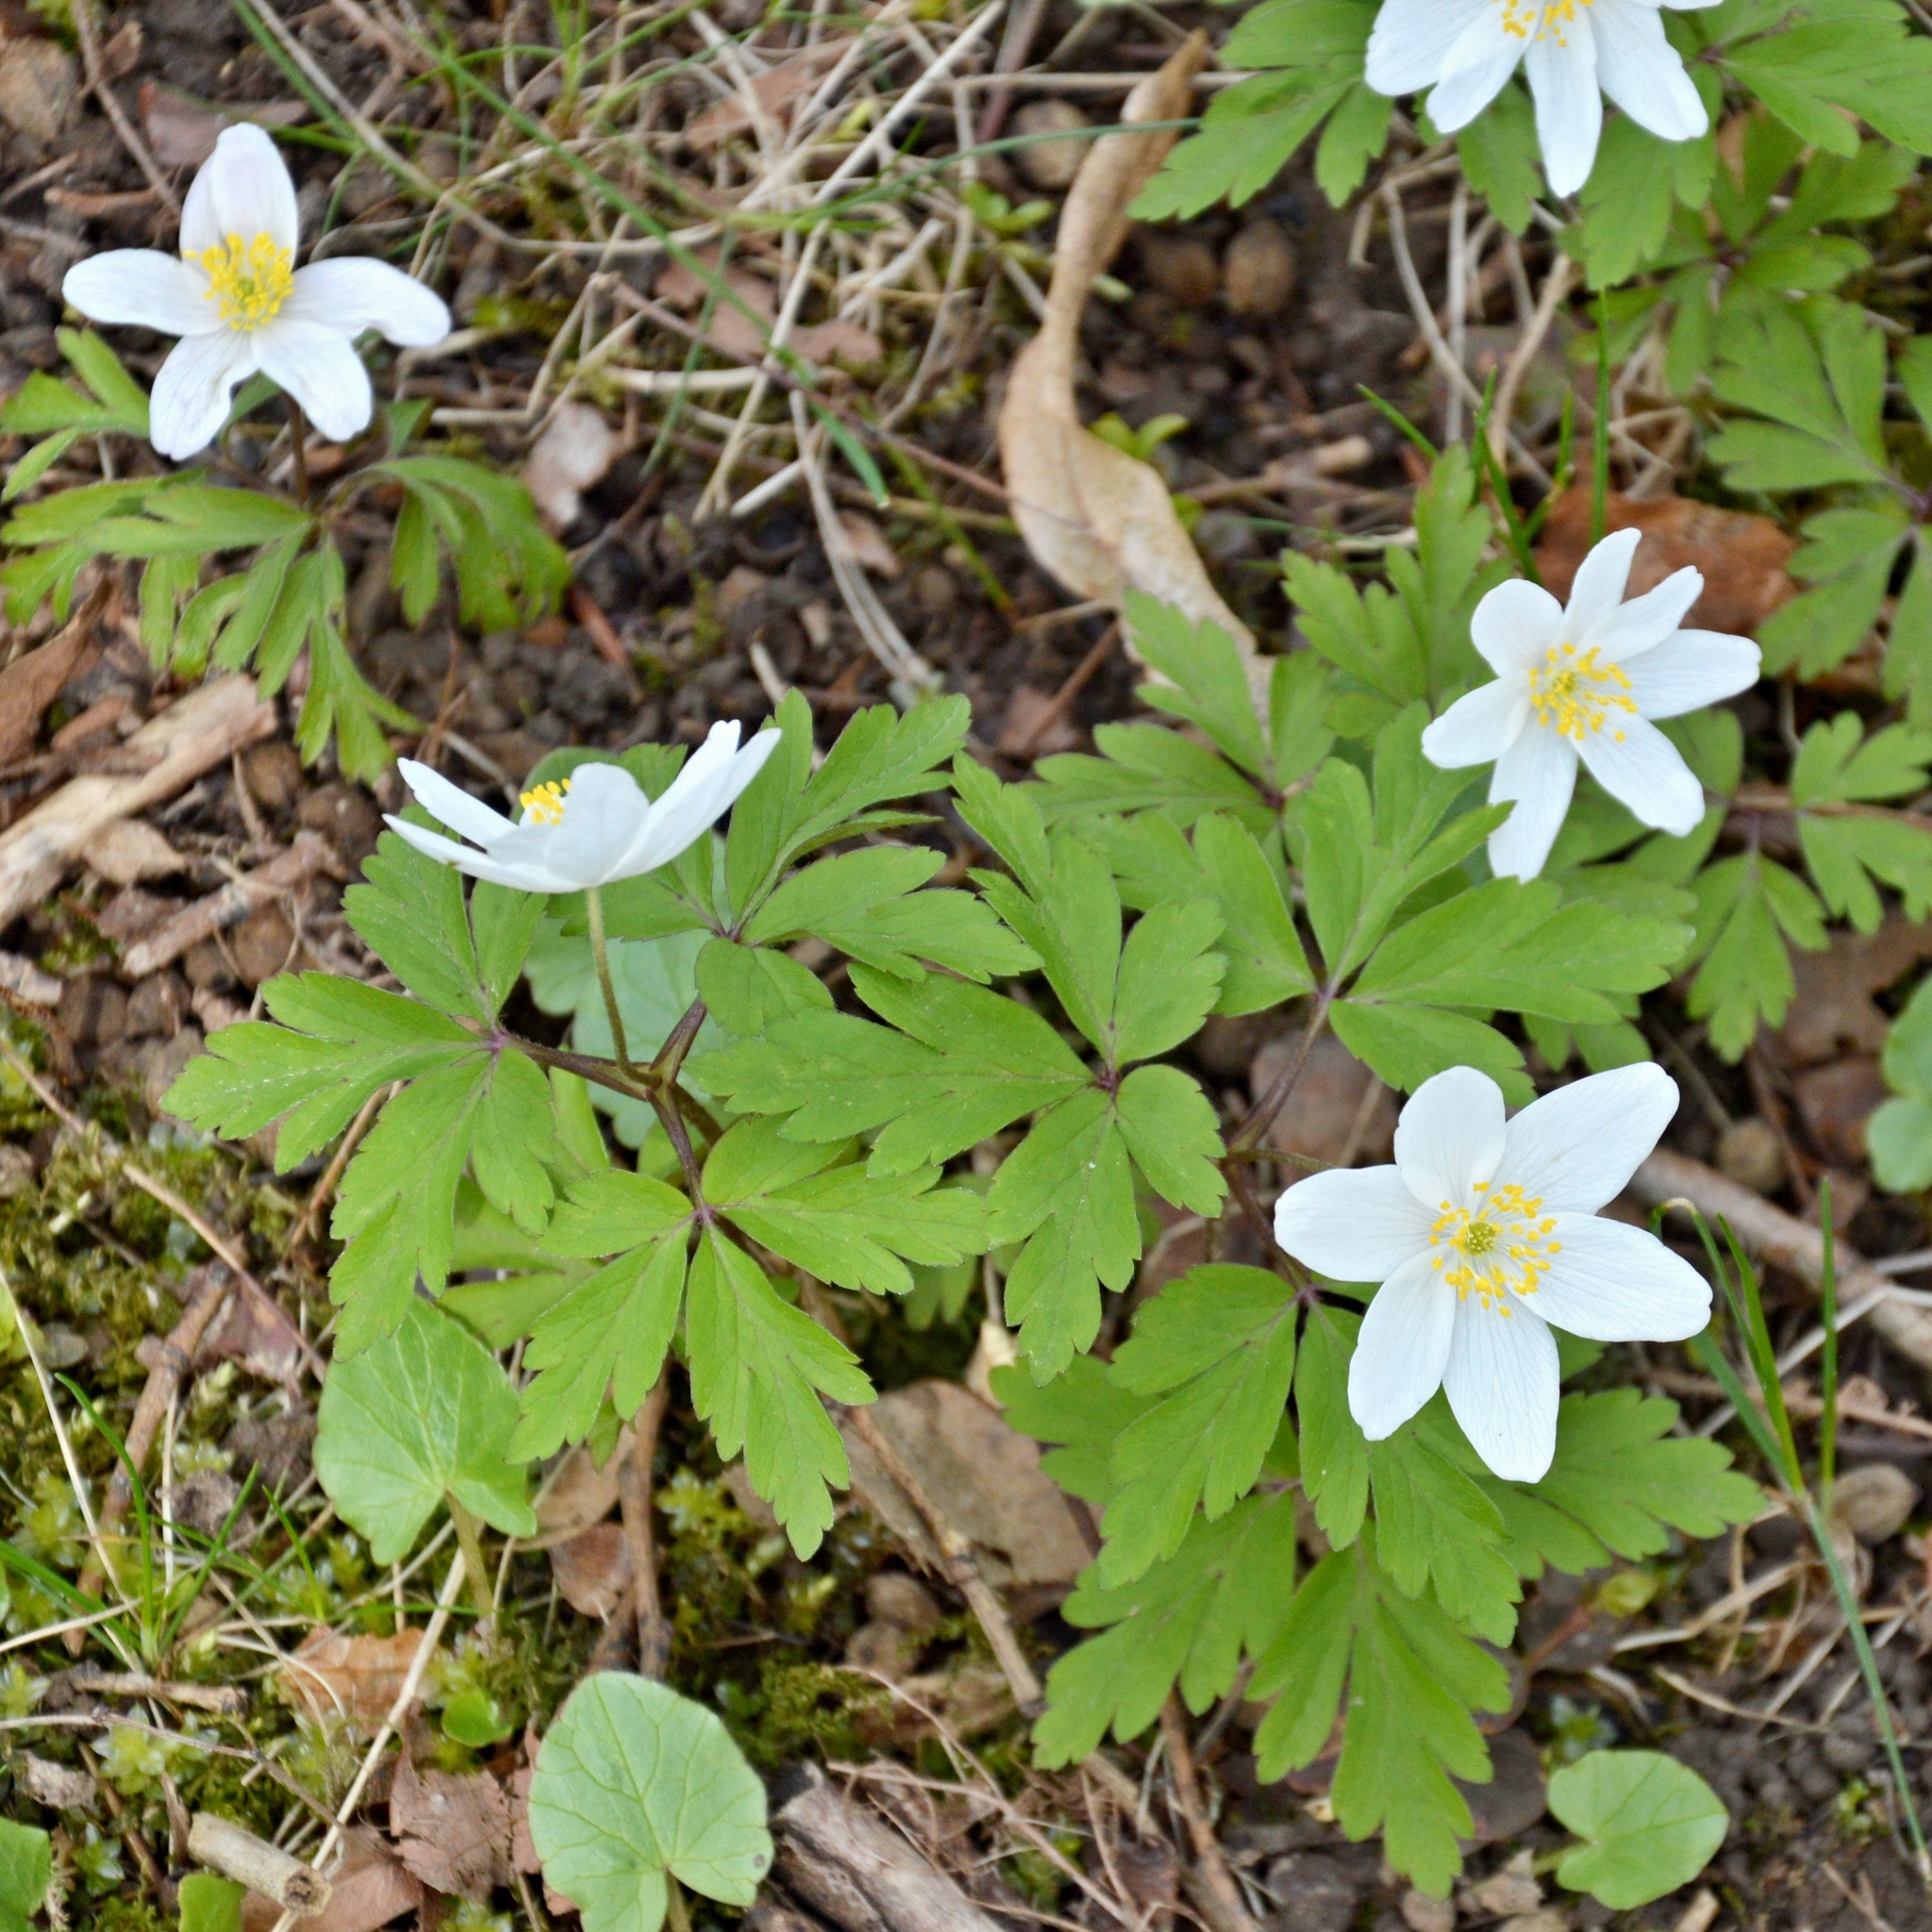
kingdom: Plantae
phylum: Tracheophyta
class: Magnoliopsida
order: Ranunculales
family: Ranunculaceae
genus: Anemone
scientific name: Anemone nemorosa
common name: Wood anemone
